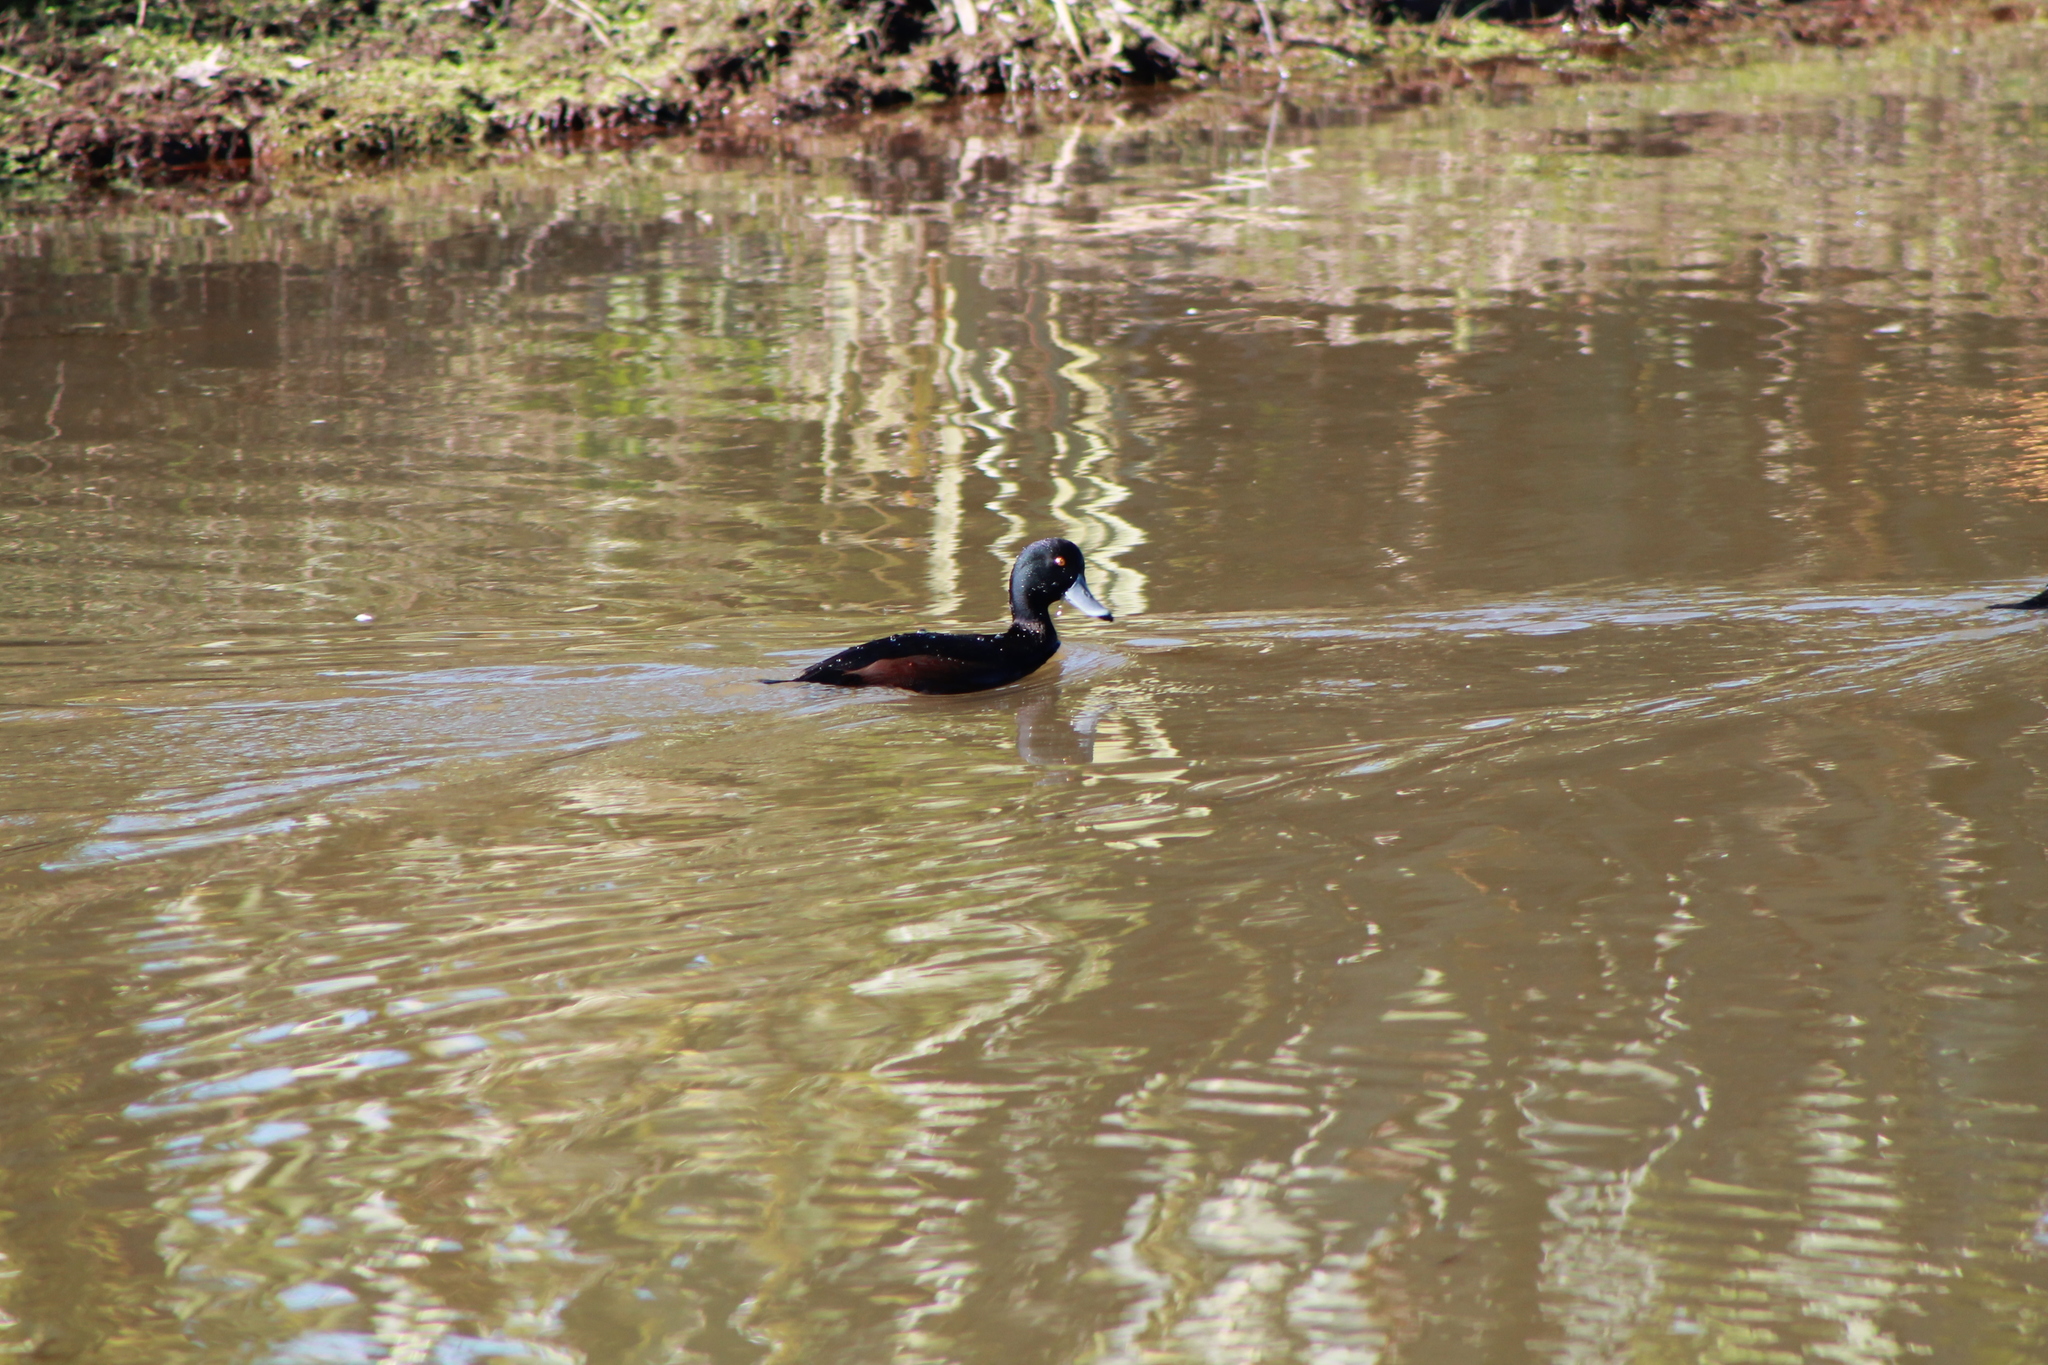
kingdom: Animalia
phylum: Chordata
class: Aves
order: Anseriformes
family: Anatidae
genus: Aythya
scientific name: Aythya novaeseelandiae
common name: New zealand scaup
